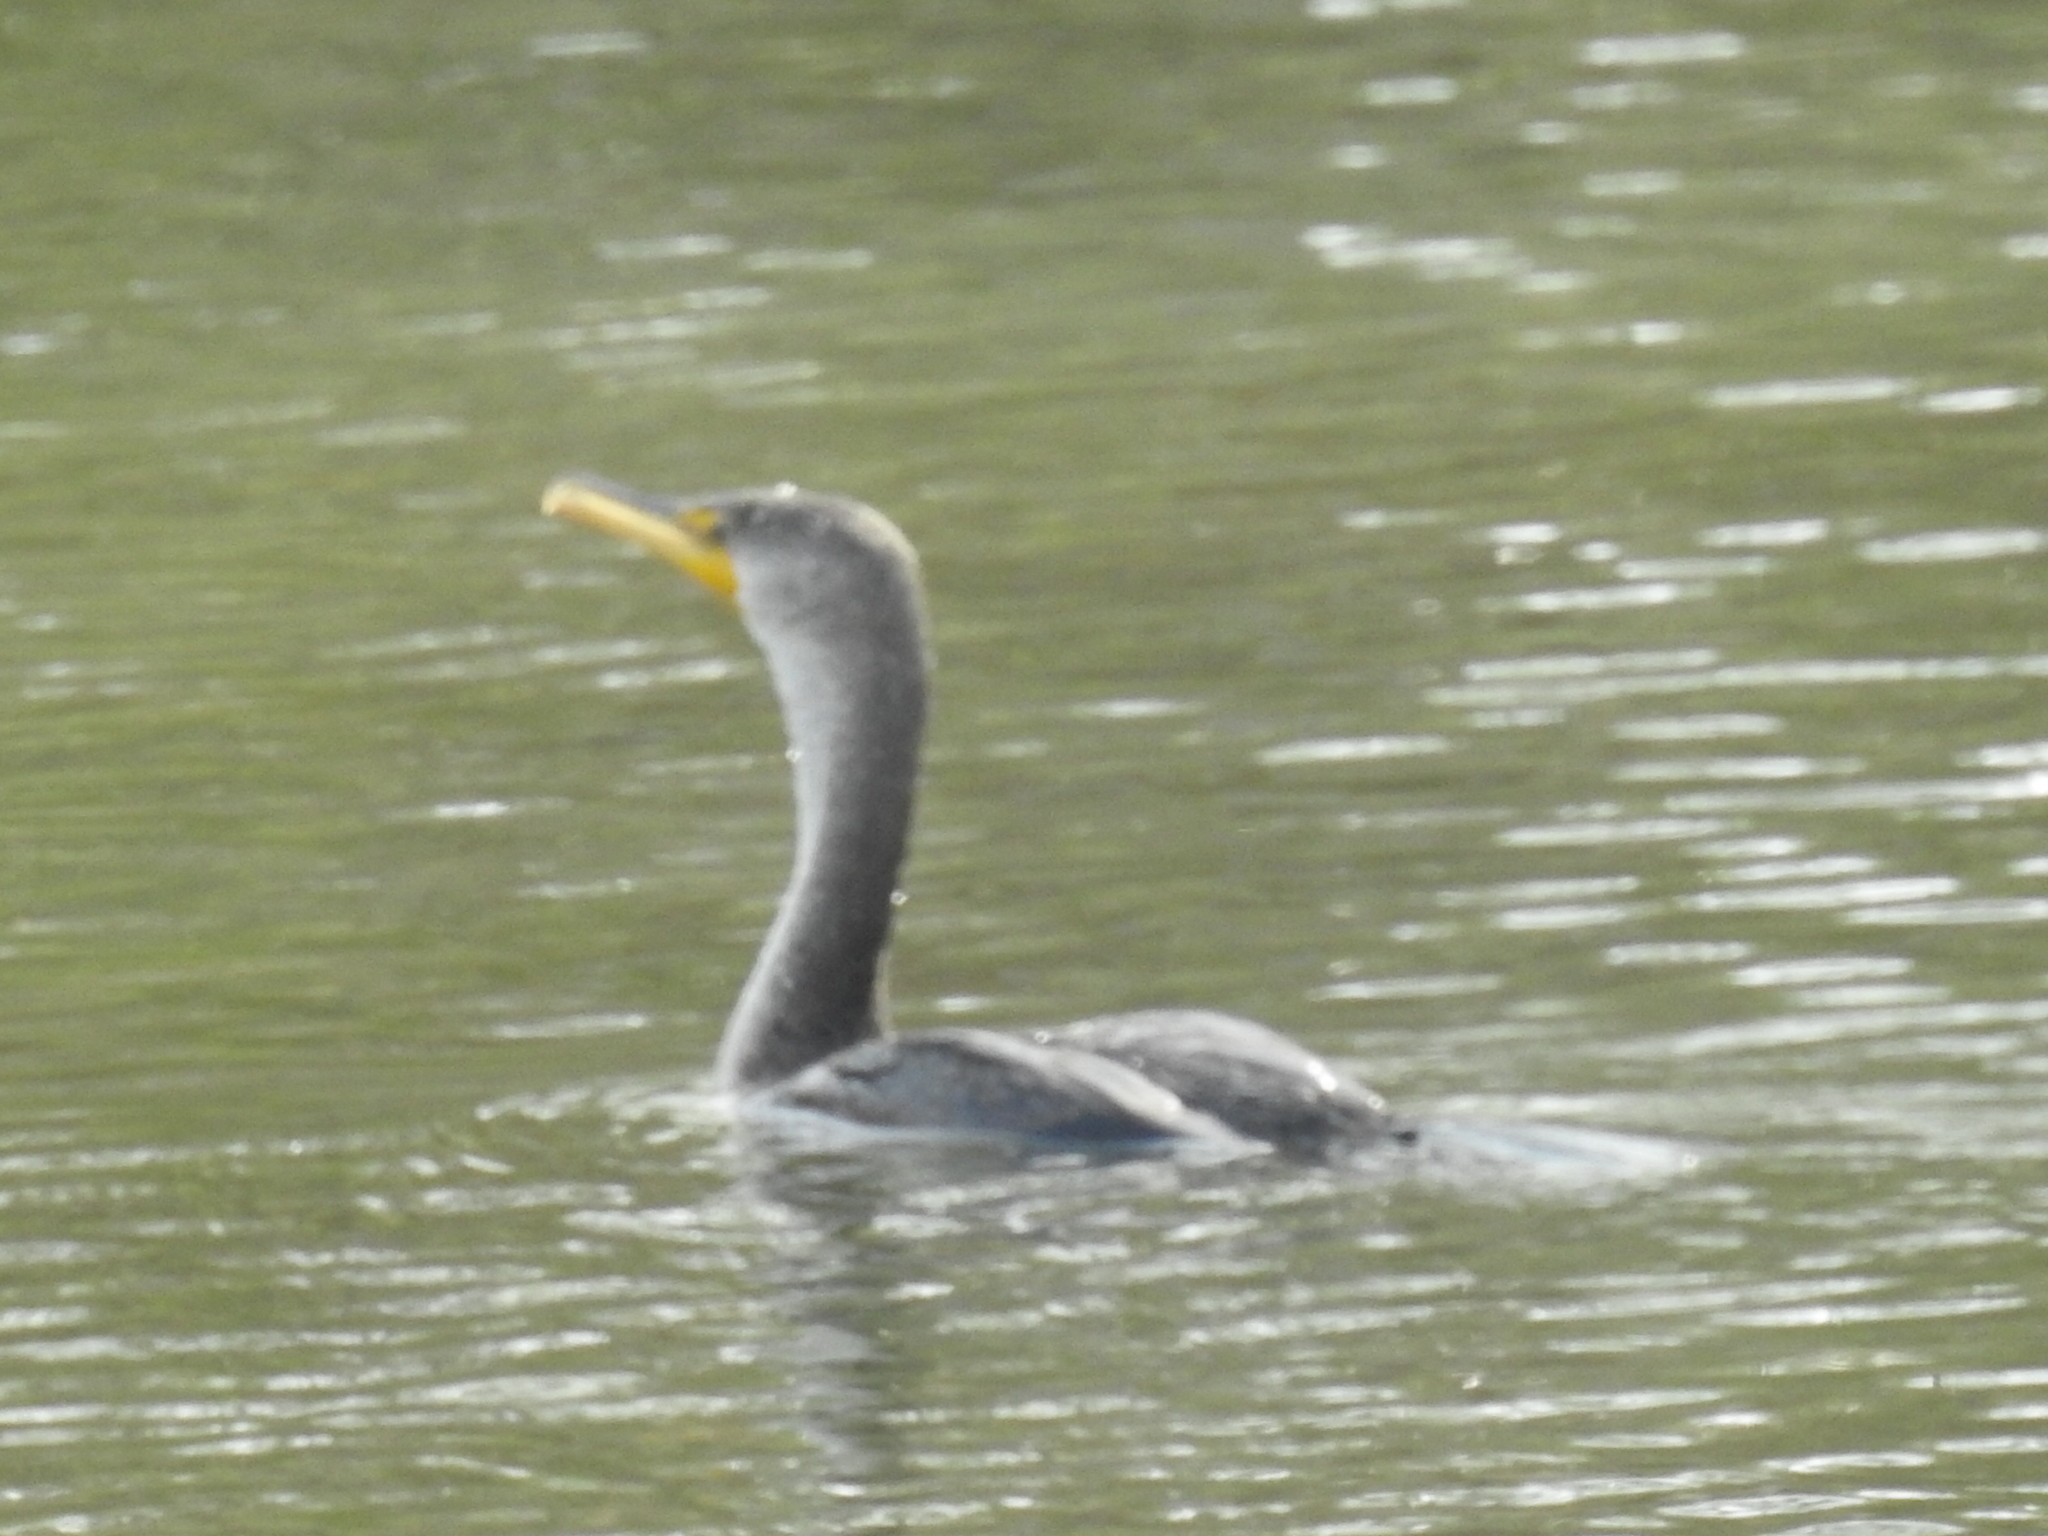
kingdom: Animalia
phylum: Chordata
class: Aves
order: Suliformes
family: Phalacrocoracidae
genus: Phalacrocorax
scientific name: Phalacrocorax auritus
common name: Double-crested cormorant
